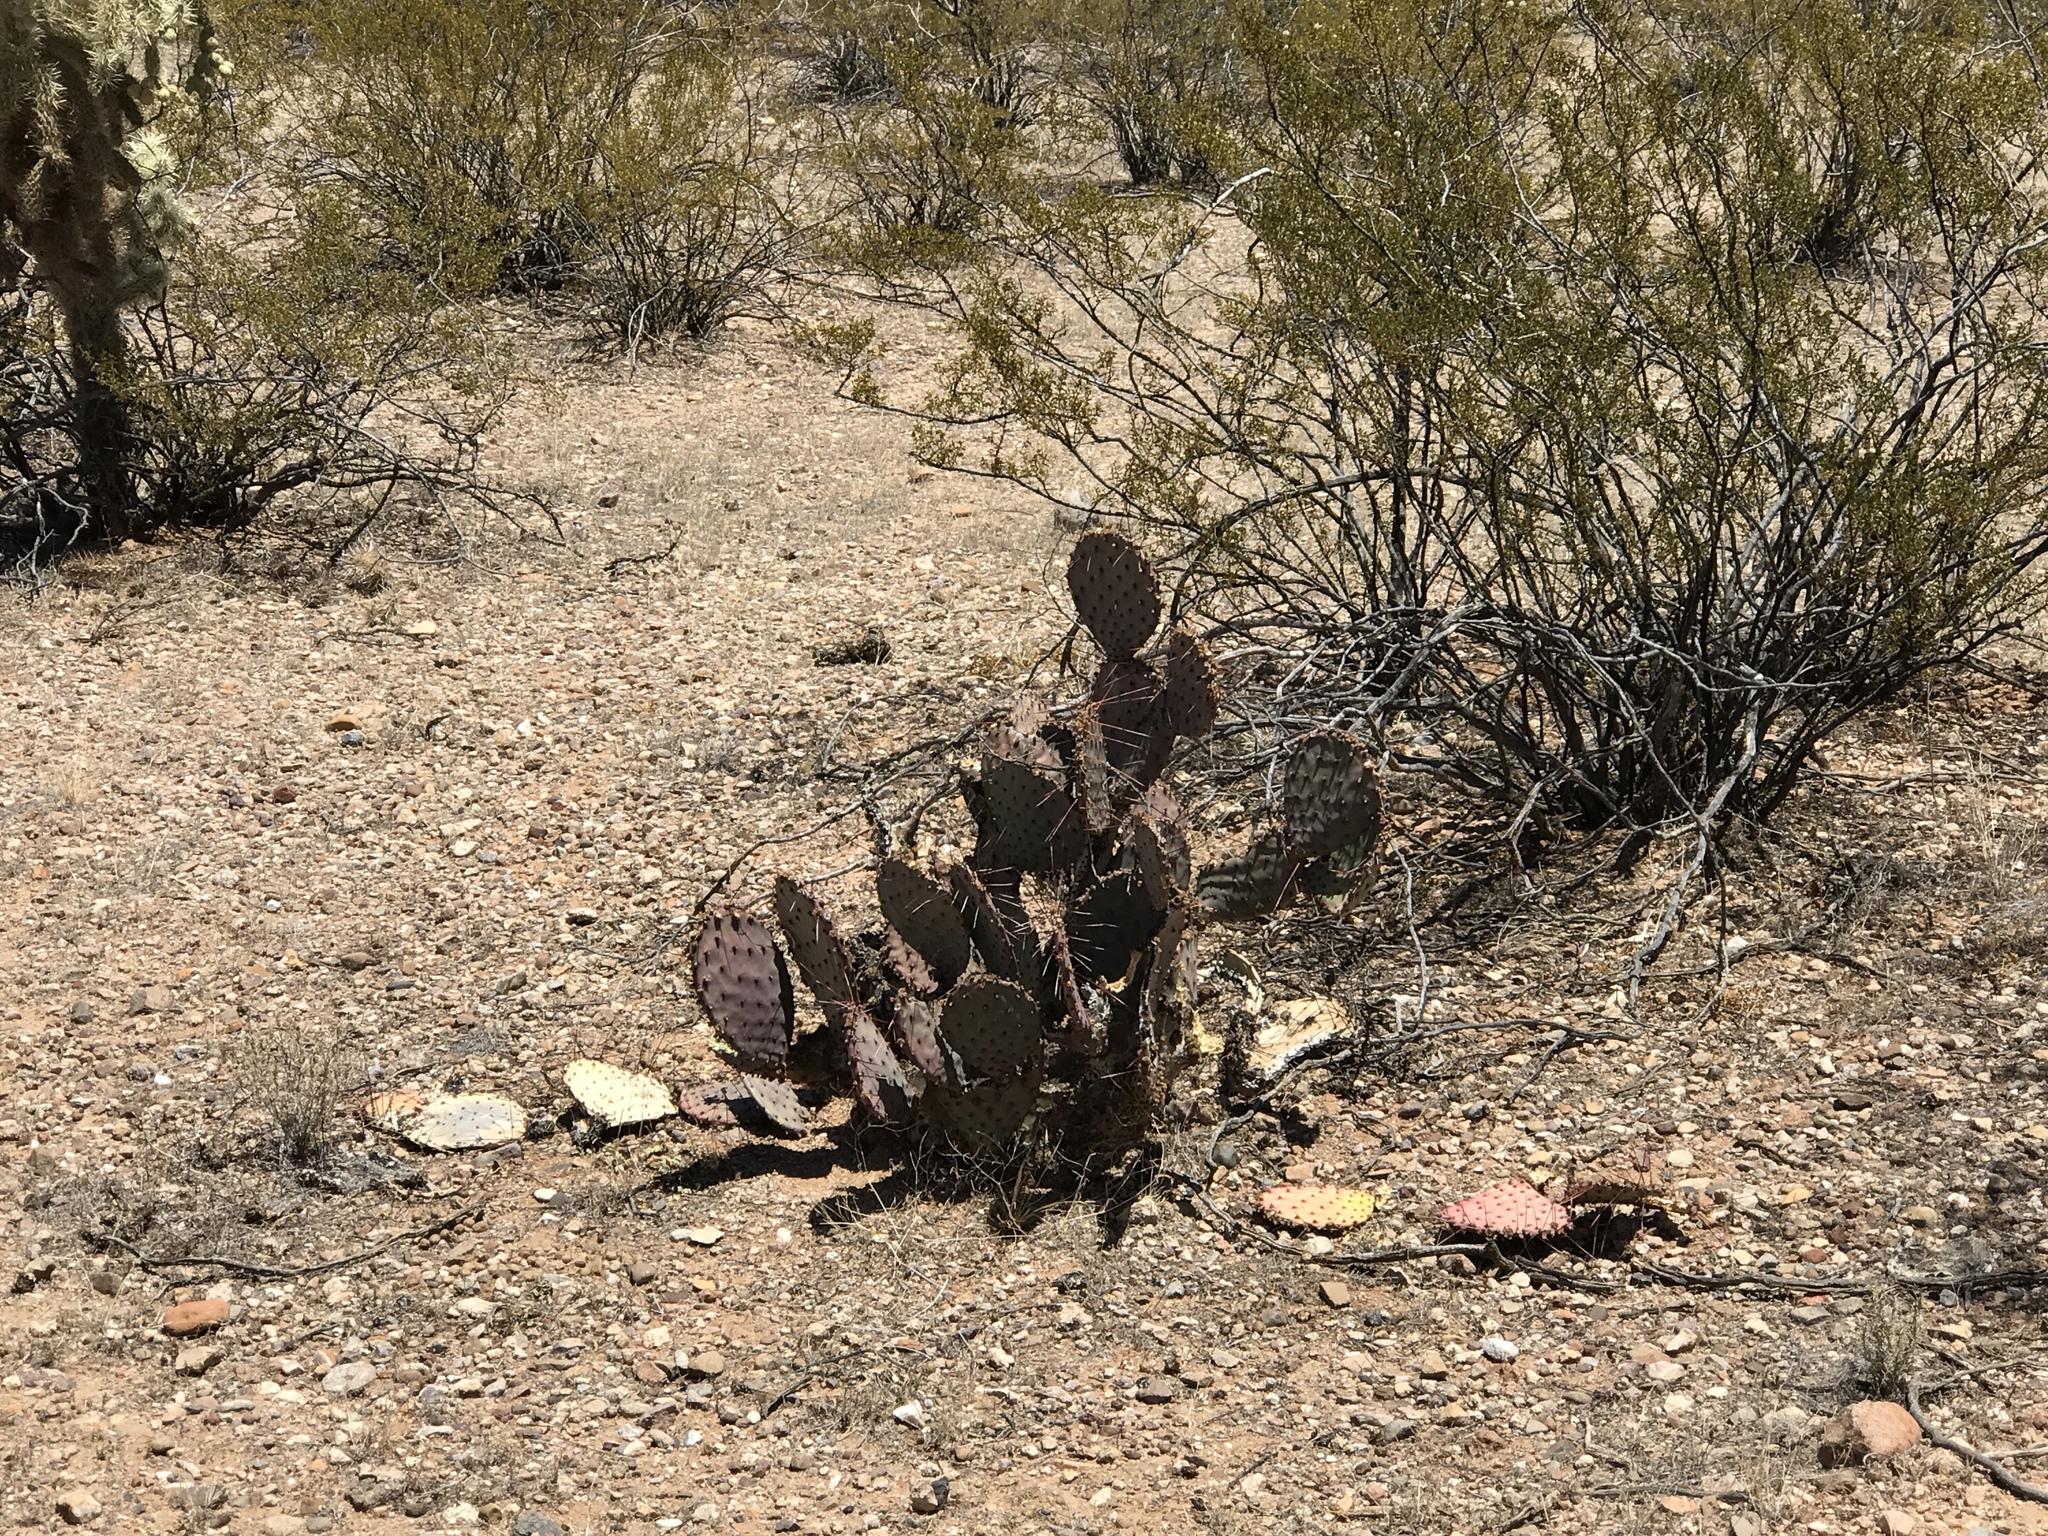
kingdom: Plantae
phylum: Tracheophyta
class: Magnoliopsida
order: Caryophyllales
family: Cactaceae
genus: Opuntia
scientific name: Opuntia macrocentra
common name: Purple prickly-pear
